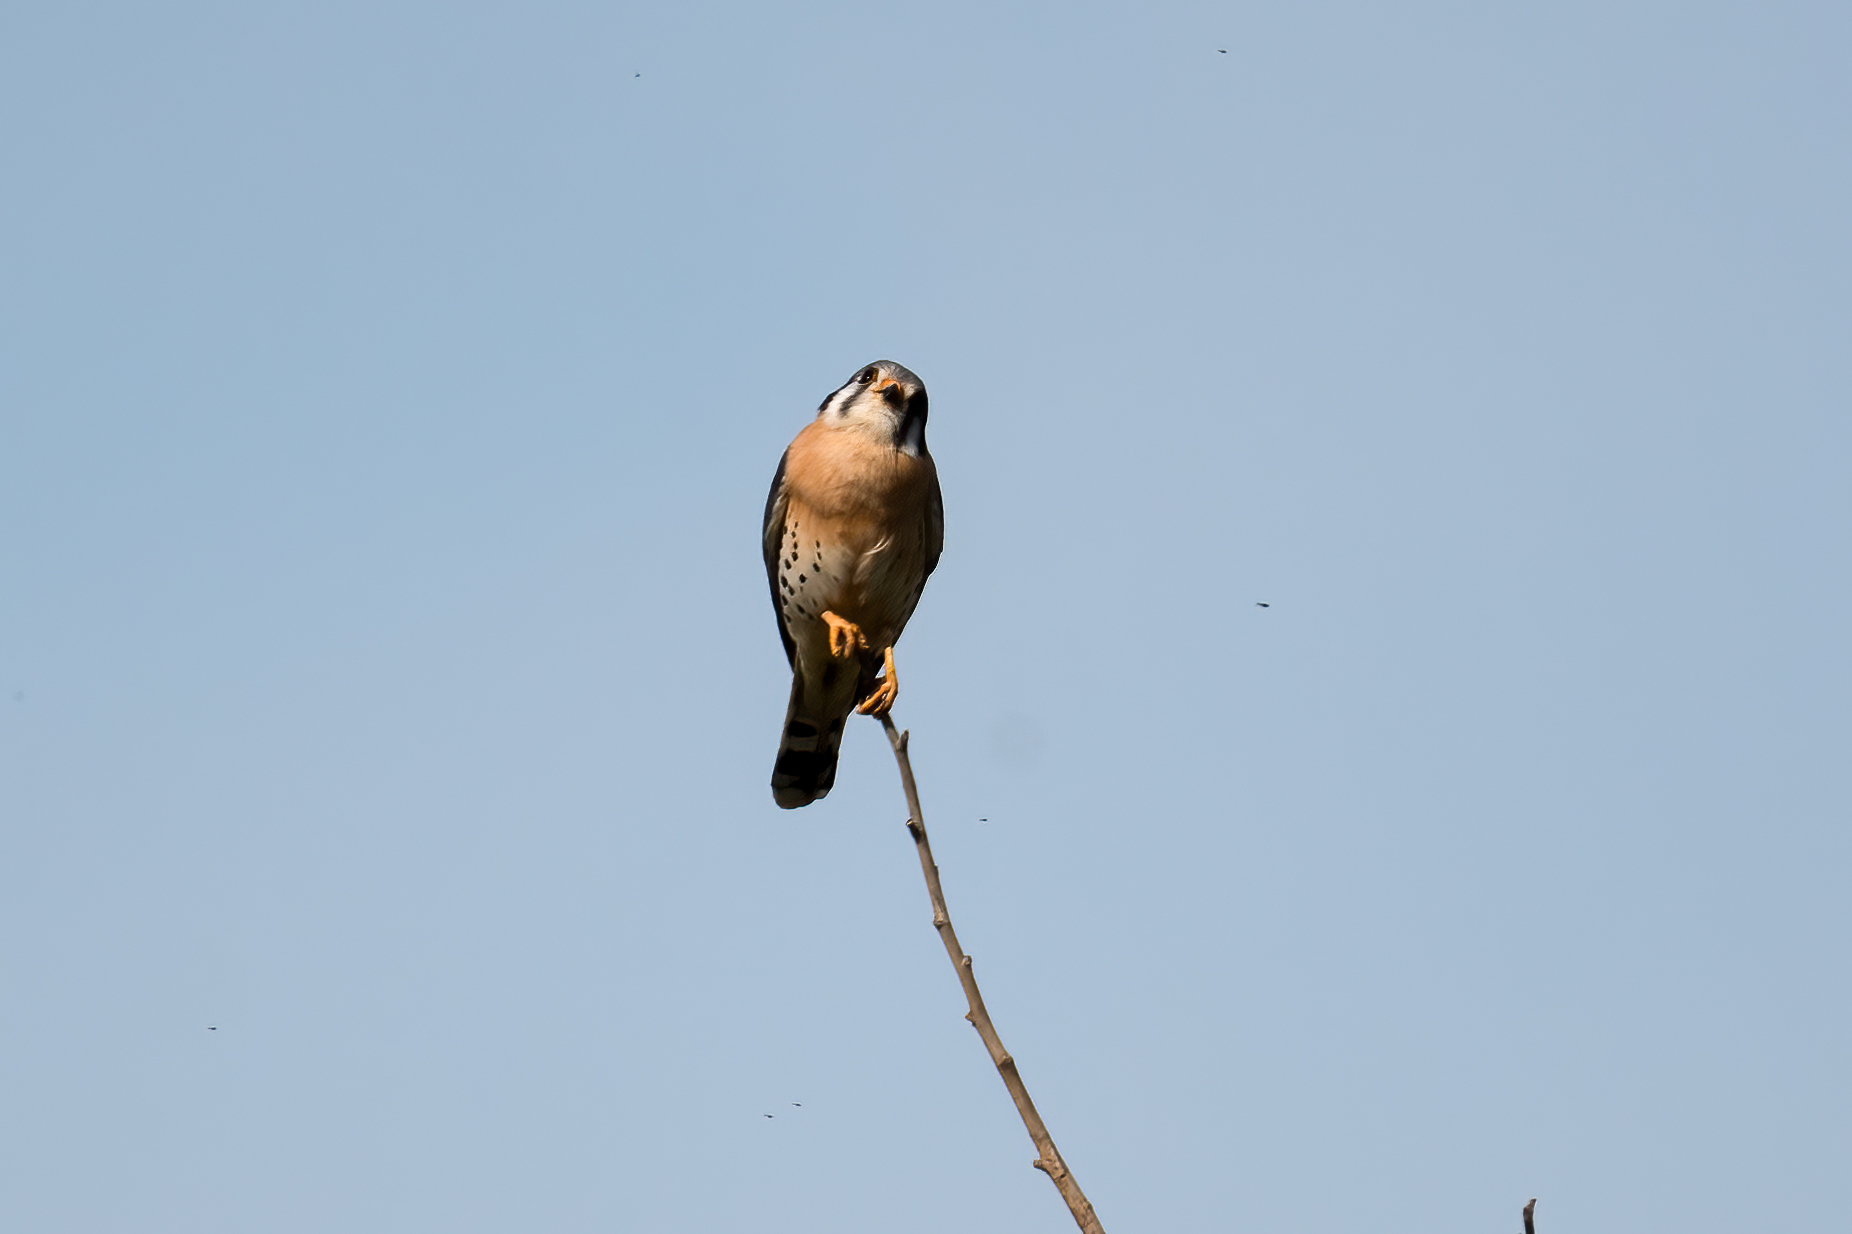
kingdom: Animalia
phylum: Chordata
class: Aves
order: Falconiformes
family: Falconidae
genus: Falco
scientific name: Falco sparverius
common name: American kestrel
